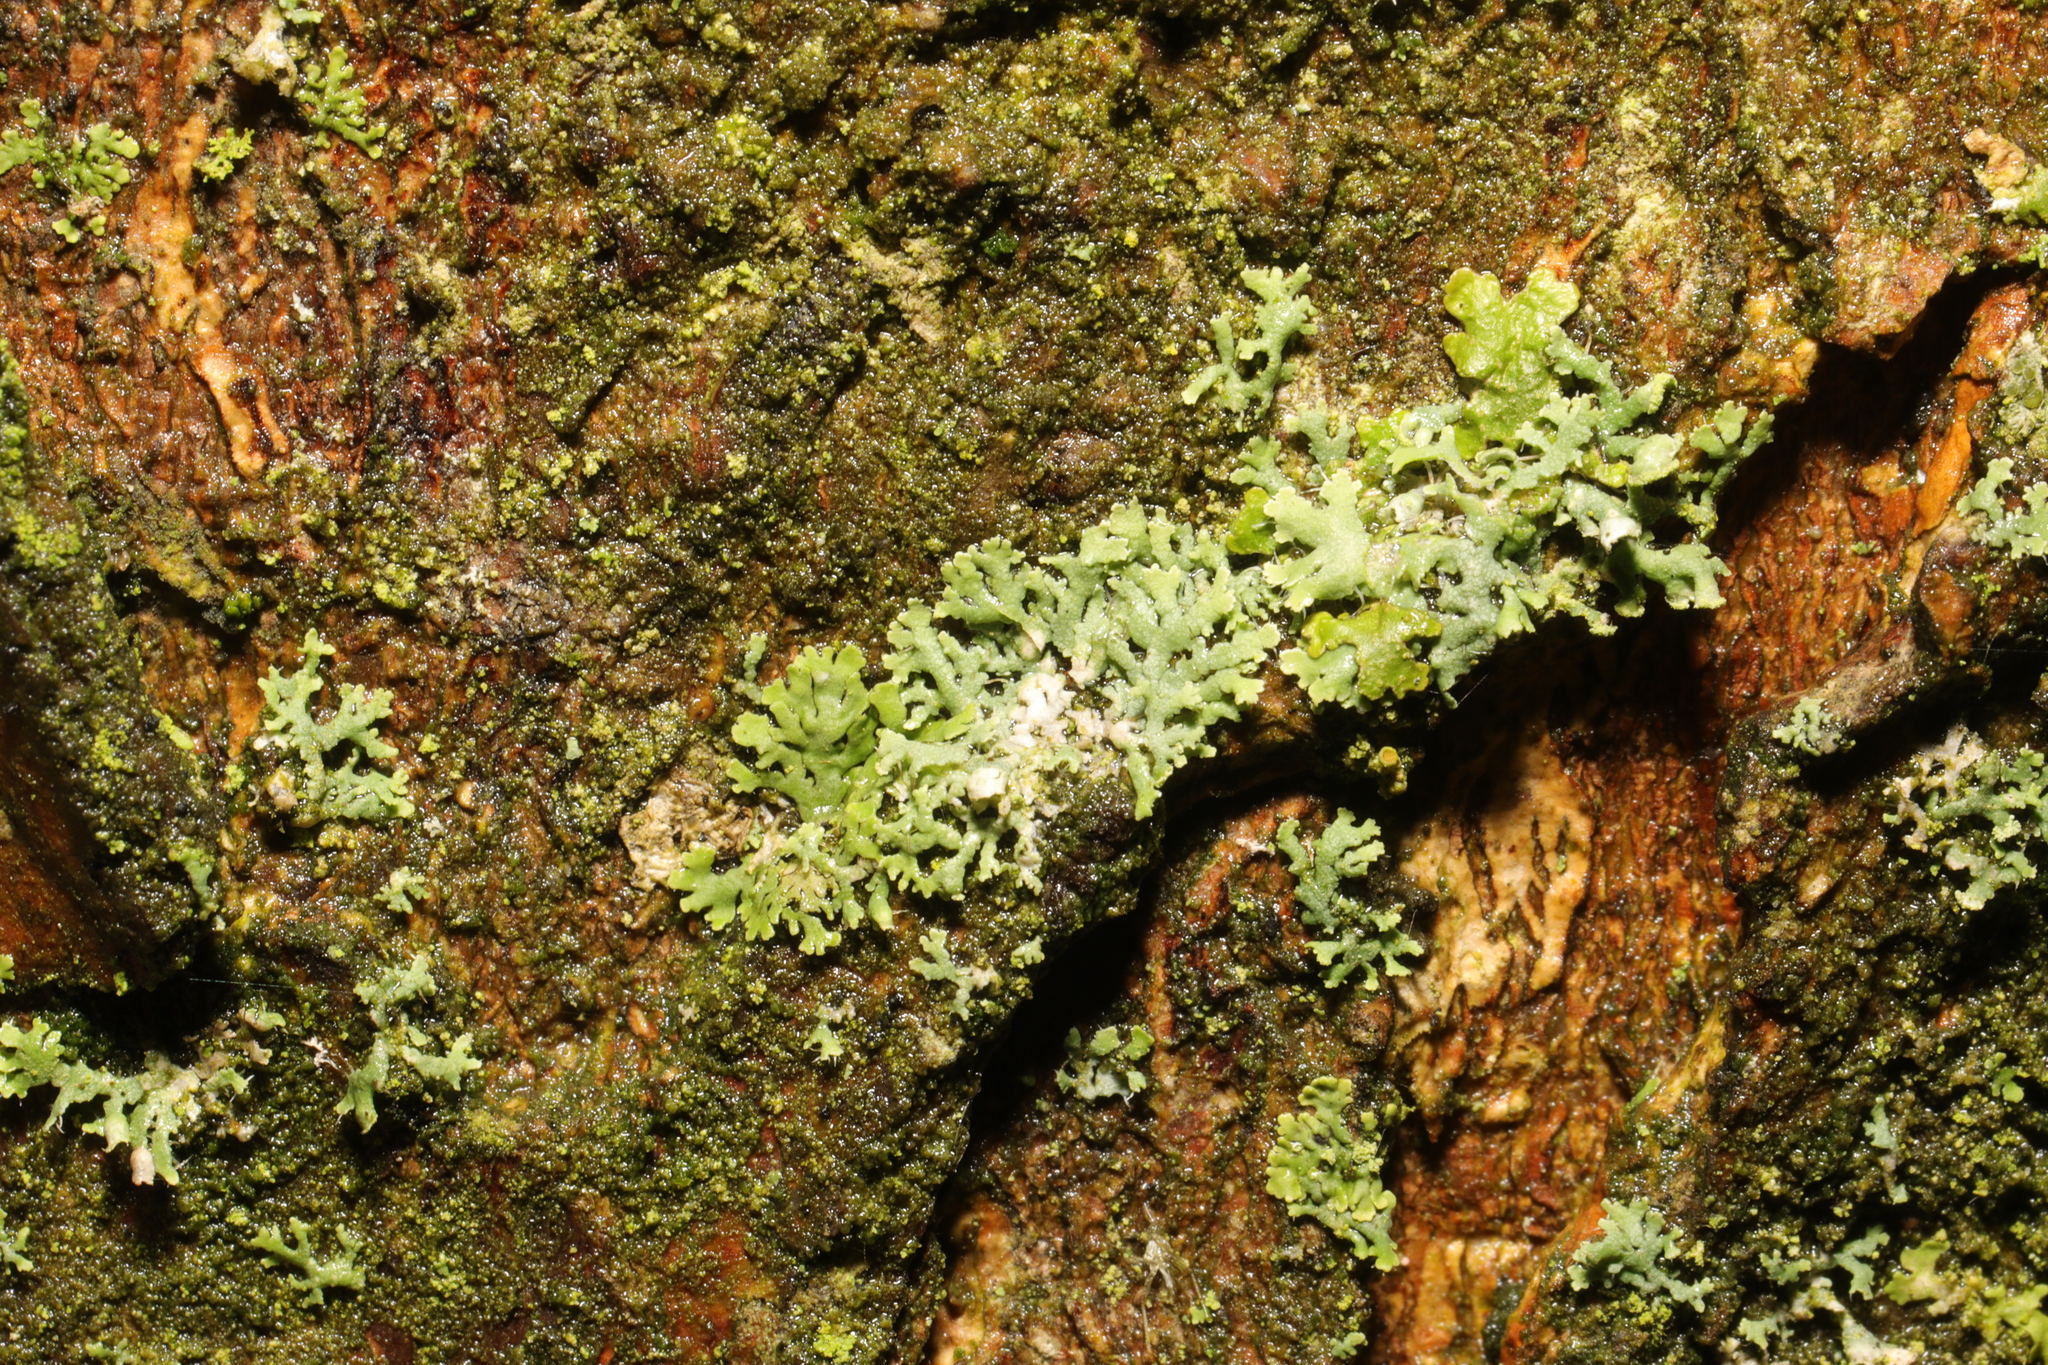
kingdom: Fungi
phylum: Ascomycota
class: Lecanoromycetes
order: Caliciales
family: Physciaceae
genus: Physcia
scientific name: Physcia tenella
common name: Fringed rosette lichen
